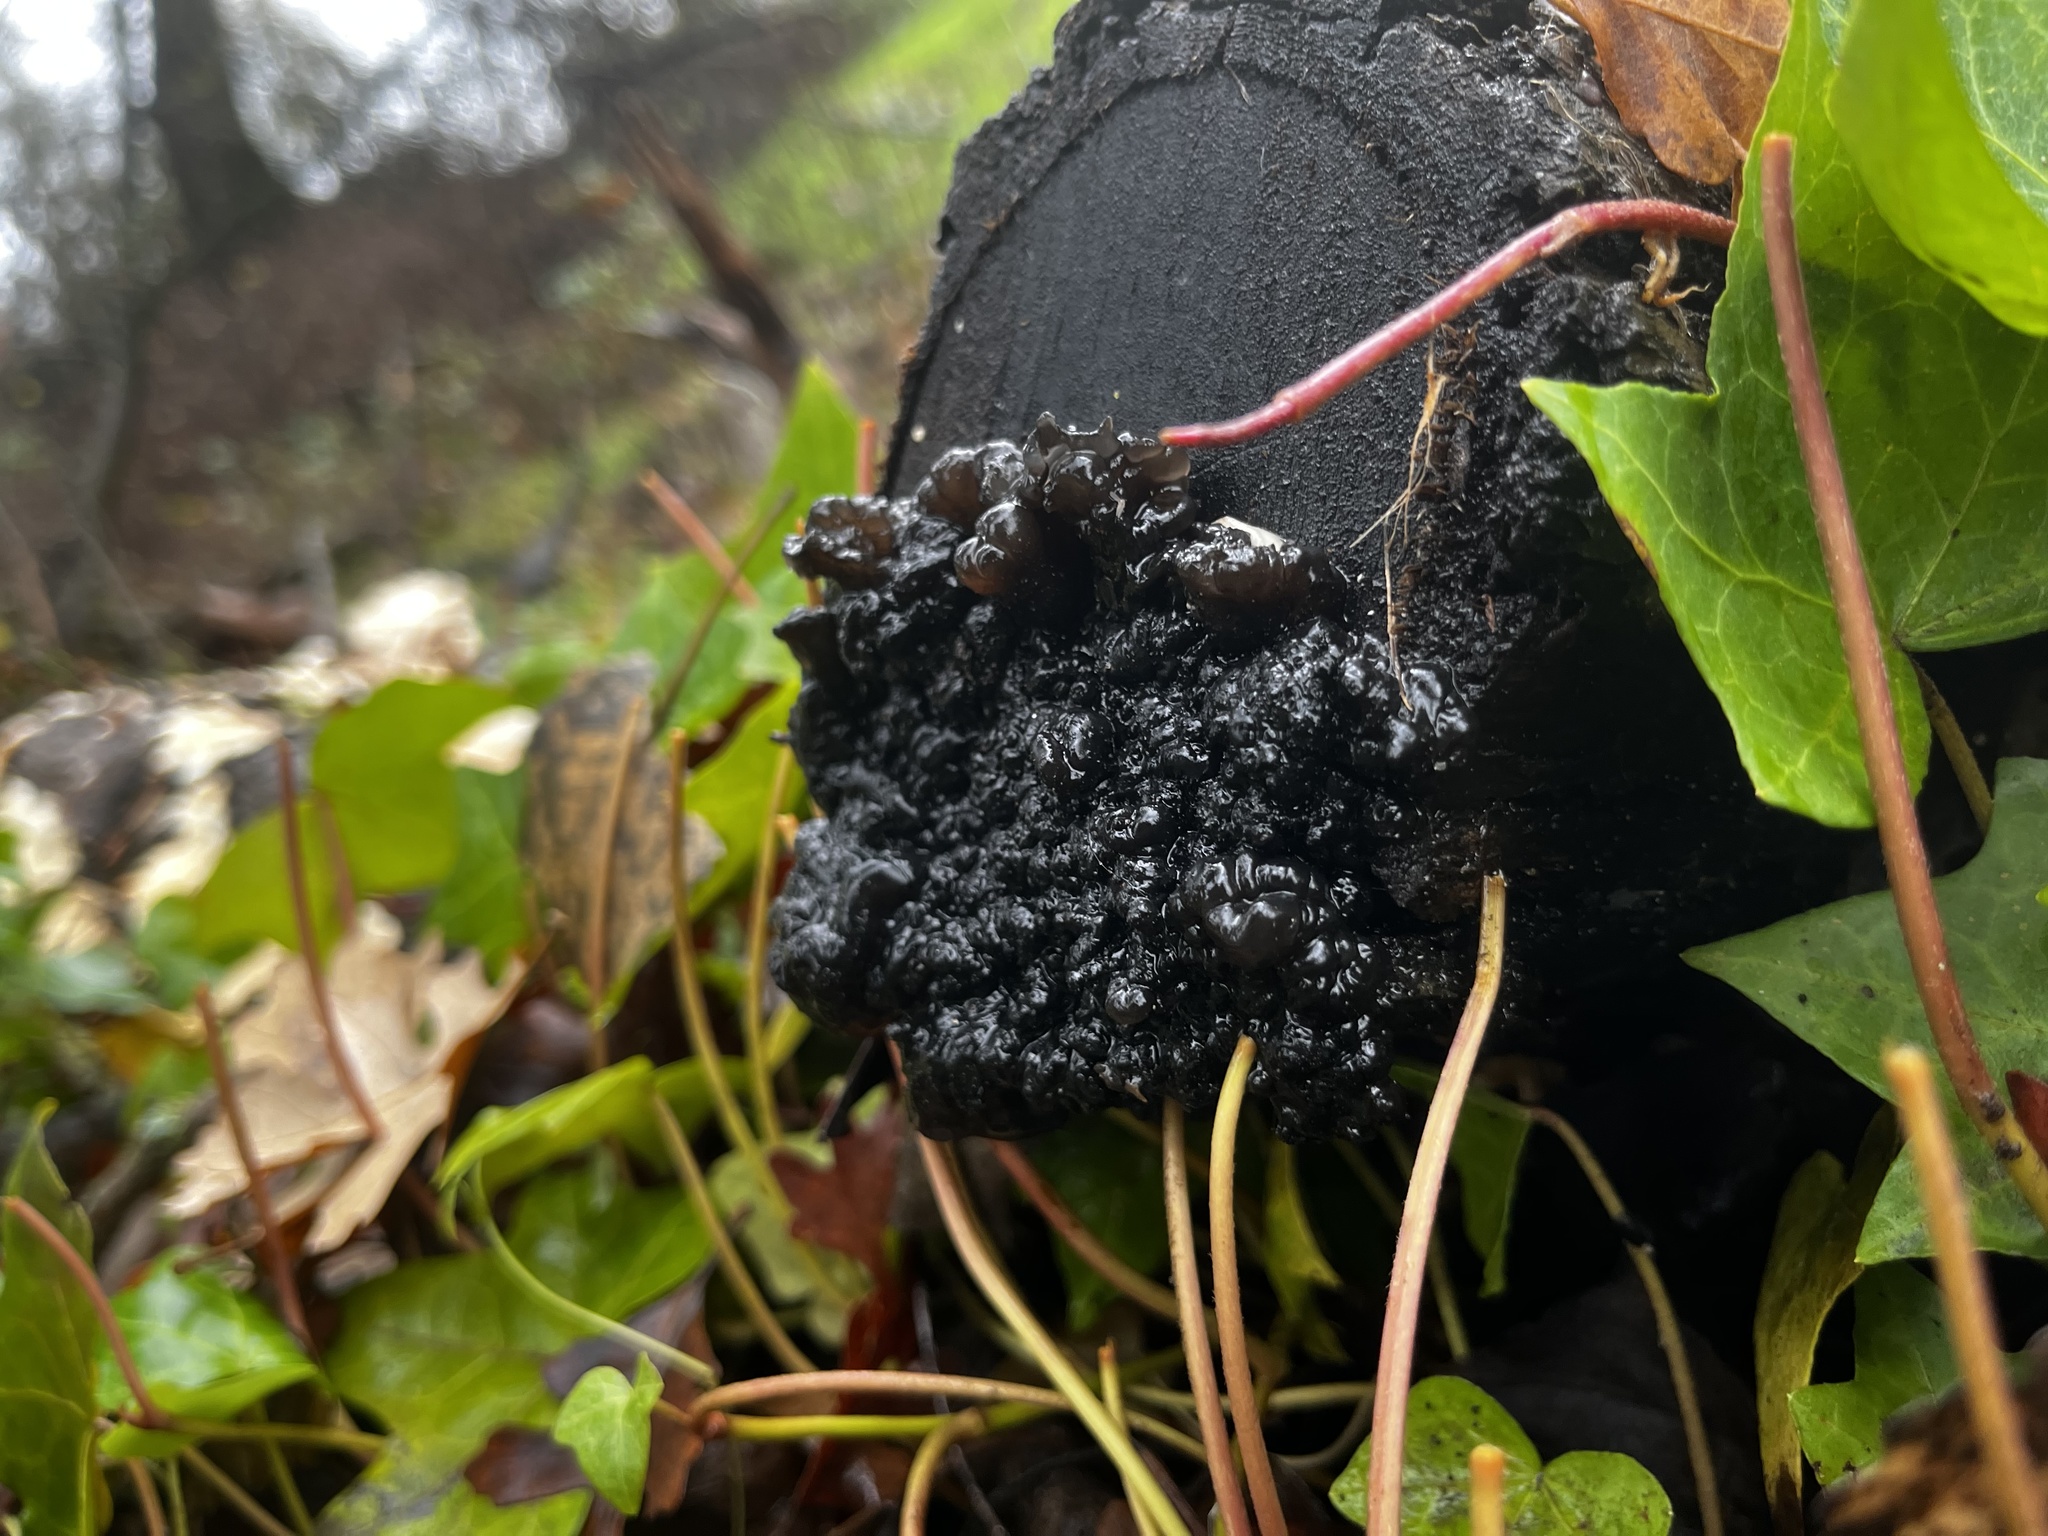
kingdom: Fungi
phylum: Basidiomycota
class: Agaricomycetes
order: Auriculariales
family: Auriculariaceae
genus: Exidia
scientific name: Exidia glandulosa
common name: Witches' butter
